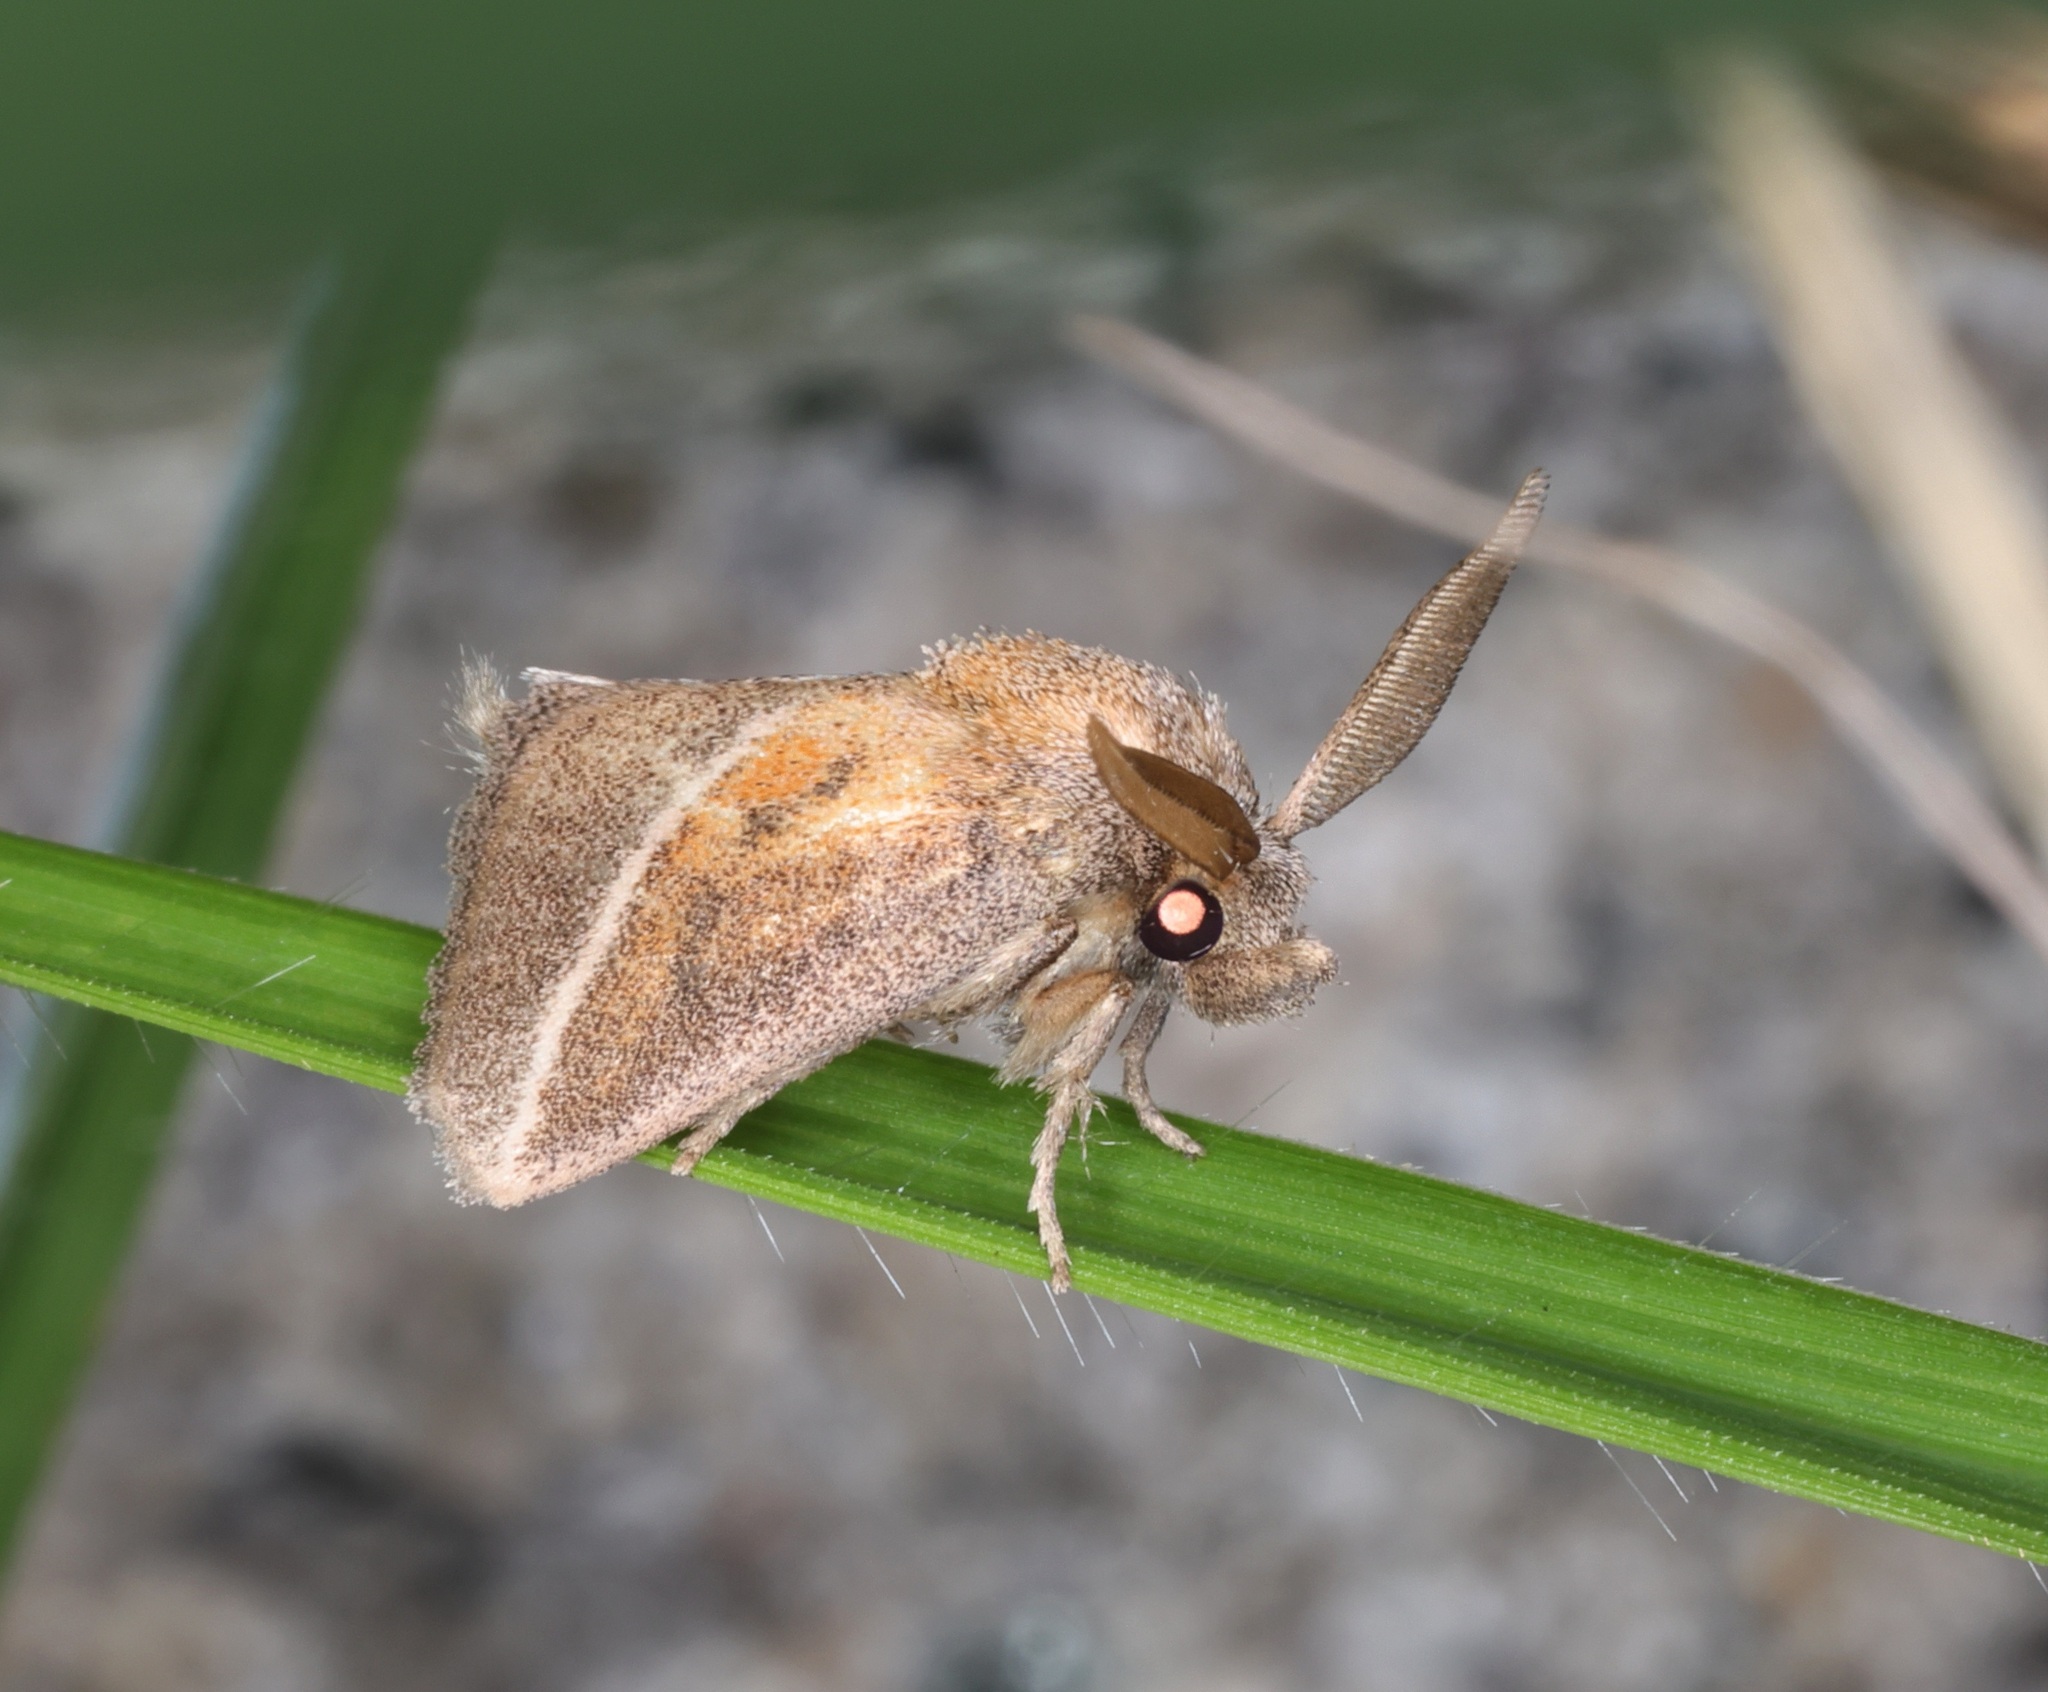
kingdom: Animalia
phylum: Arthropoda
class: Insecta
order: Lepidoptera
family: Limacodidae
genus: Oxyplax
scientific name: Oxyplax pallivitta
